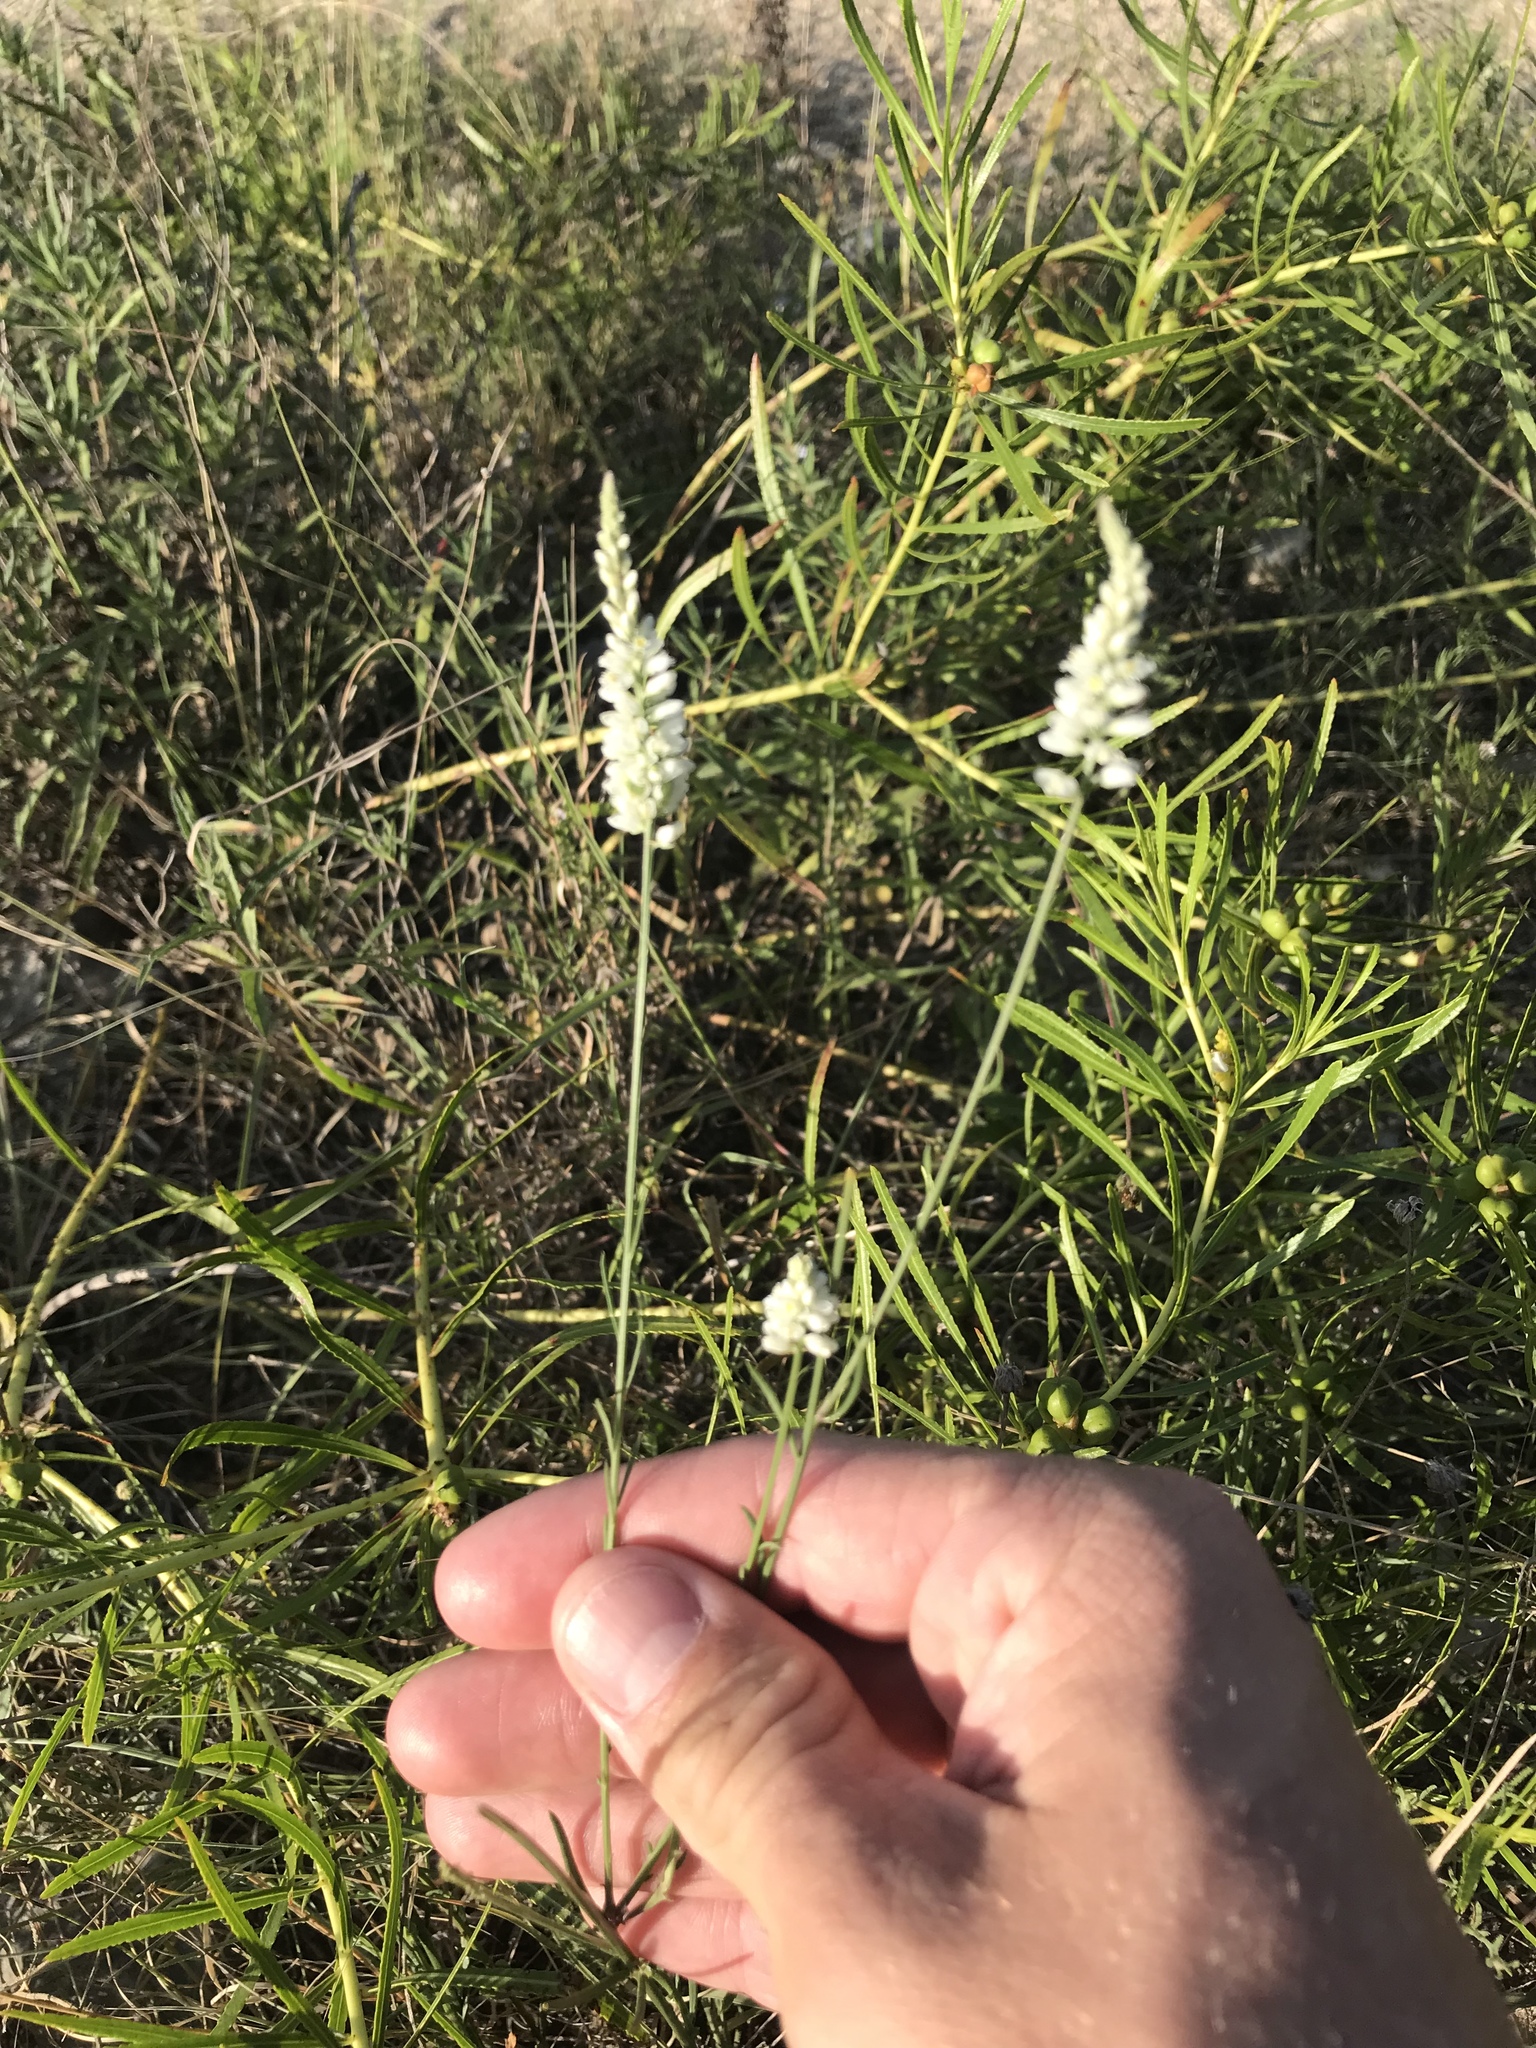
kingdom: Plantae
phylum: Tracheophyta
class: Magnoliopsida
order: Fabales
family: Polygalaceae
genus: Polygala
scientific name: Polygala alba
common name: White milkwort
